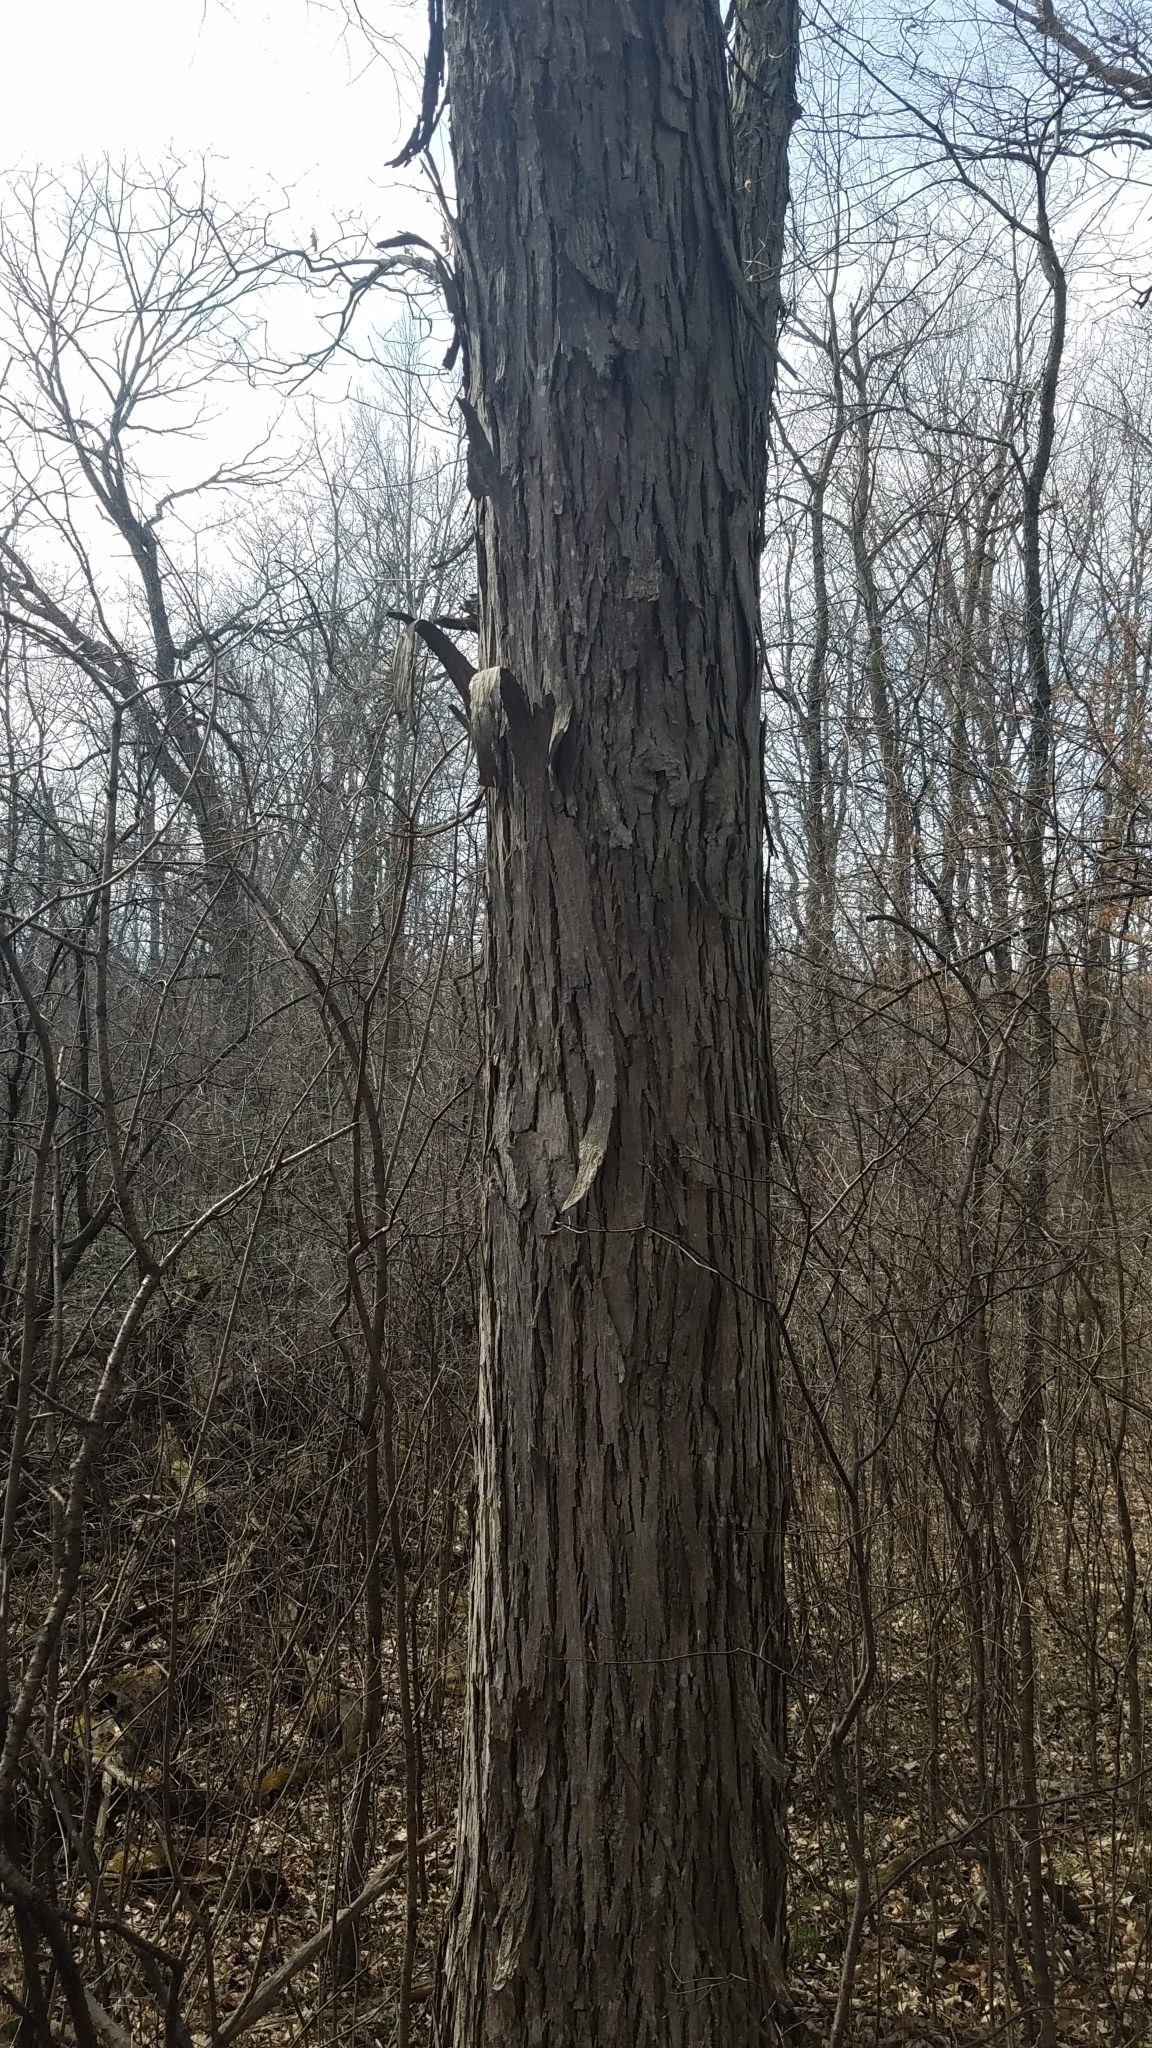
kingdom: Plantae
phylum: Tracheophyta
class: Magnoliopsida
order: Fagales
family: Juglandaceae
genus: Carya
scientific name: Carya ovata
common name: Shagbark hickory
